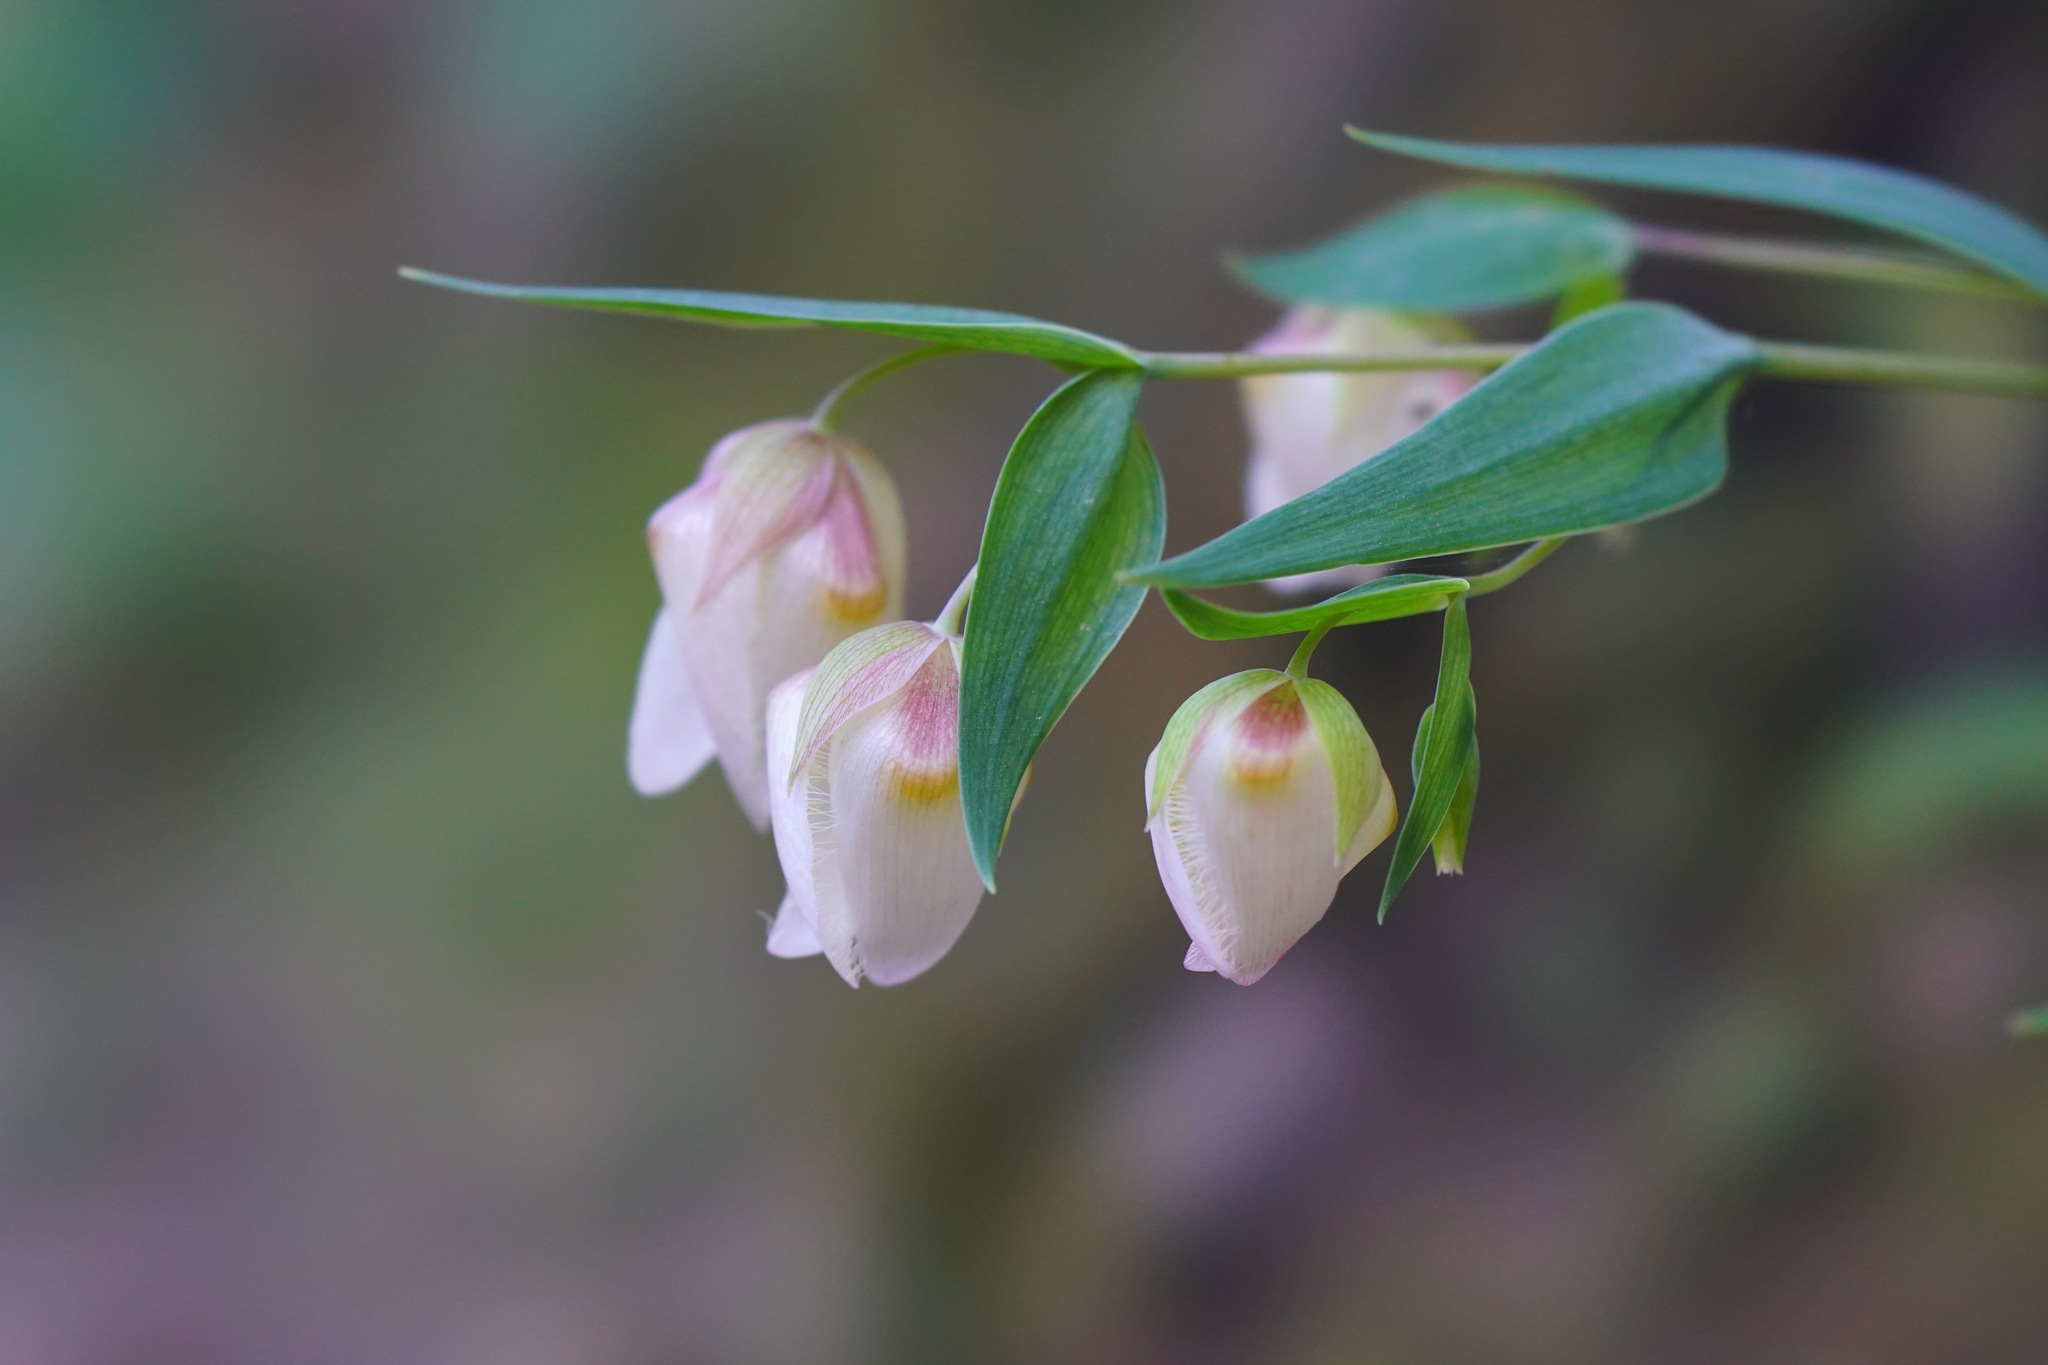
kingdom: Plantae
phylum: Tracheophyta
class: Liliopsida
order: Liliales
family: Liliaceae
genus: Calochortus
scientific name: Calochortus albus
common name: Fairy-lantern
